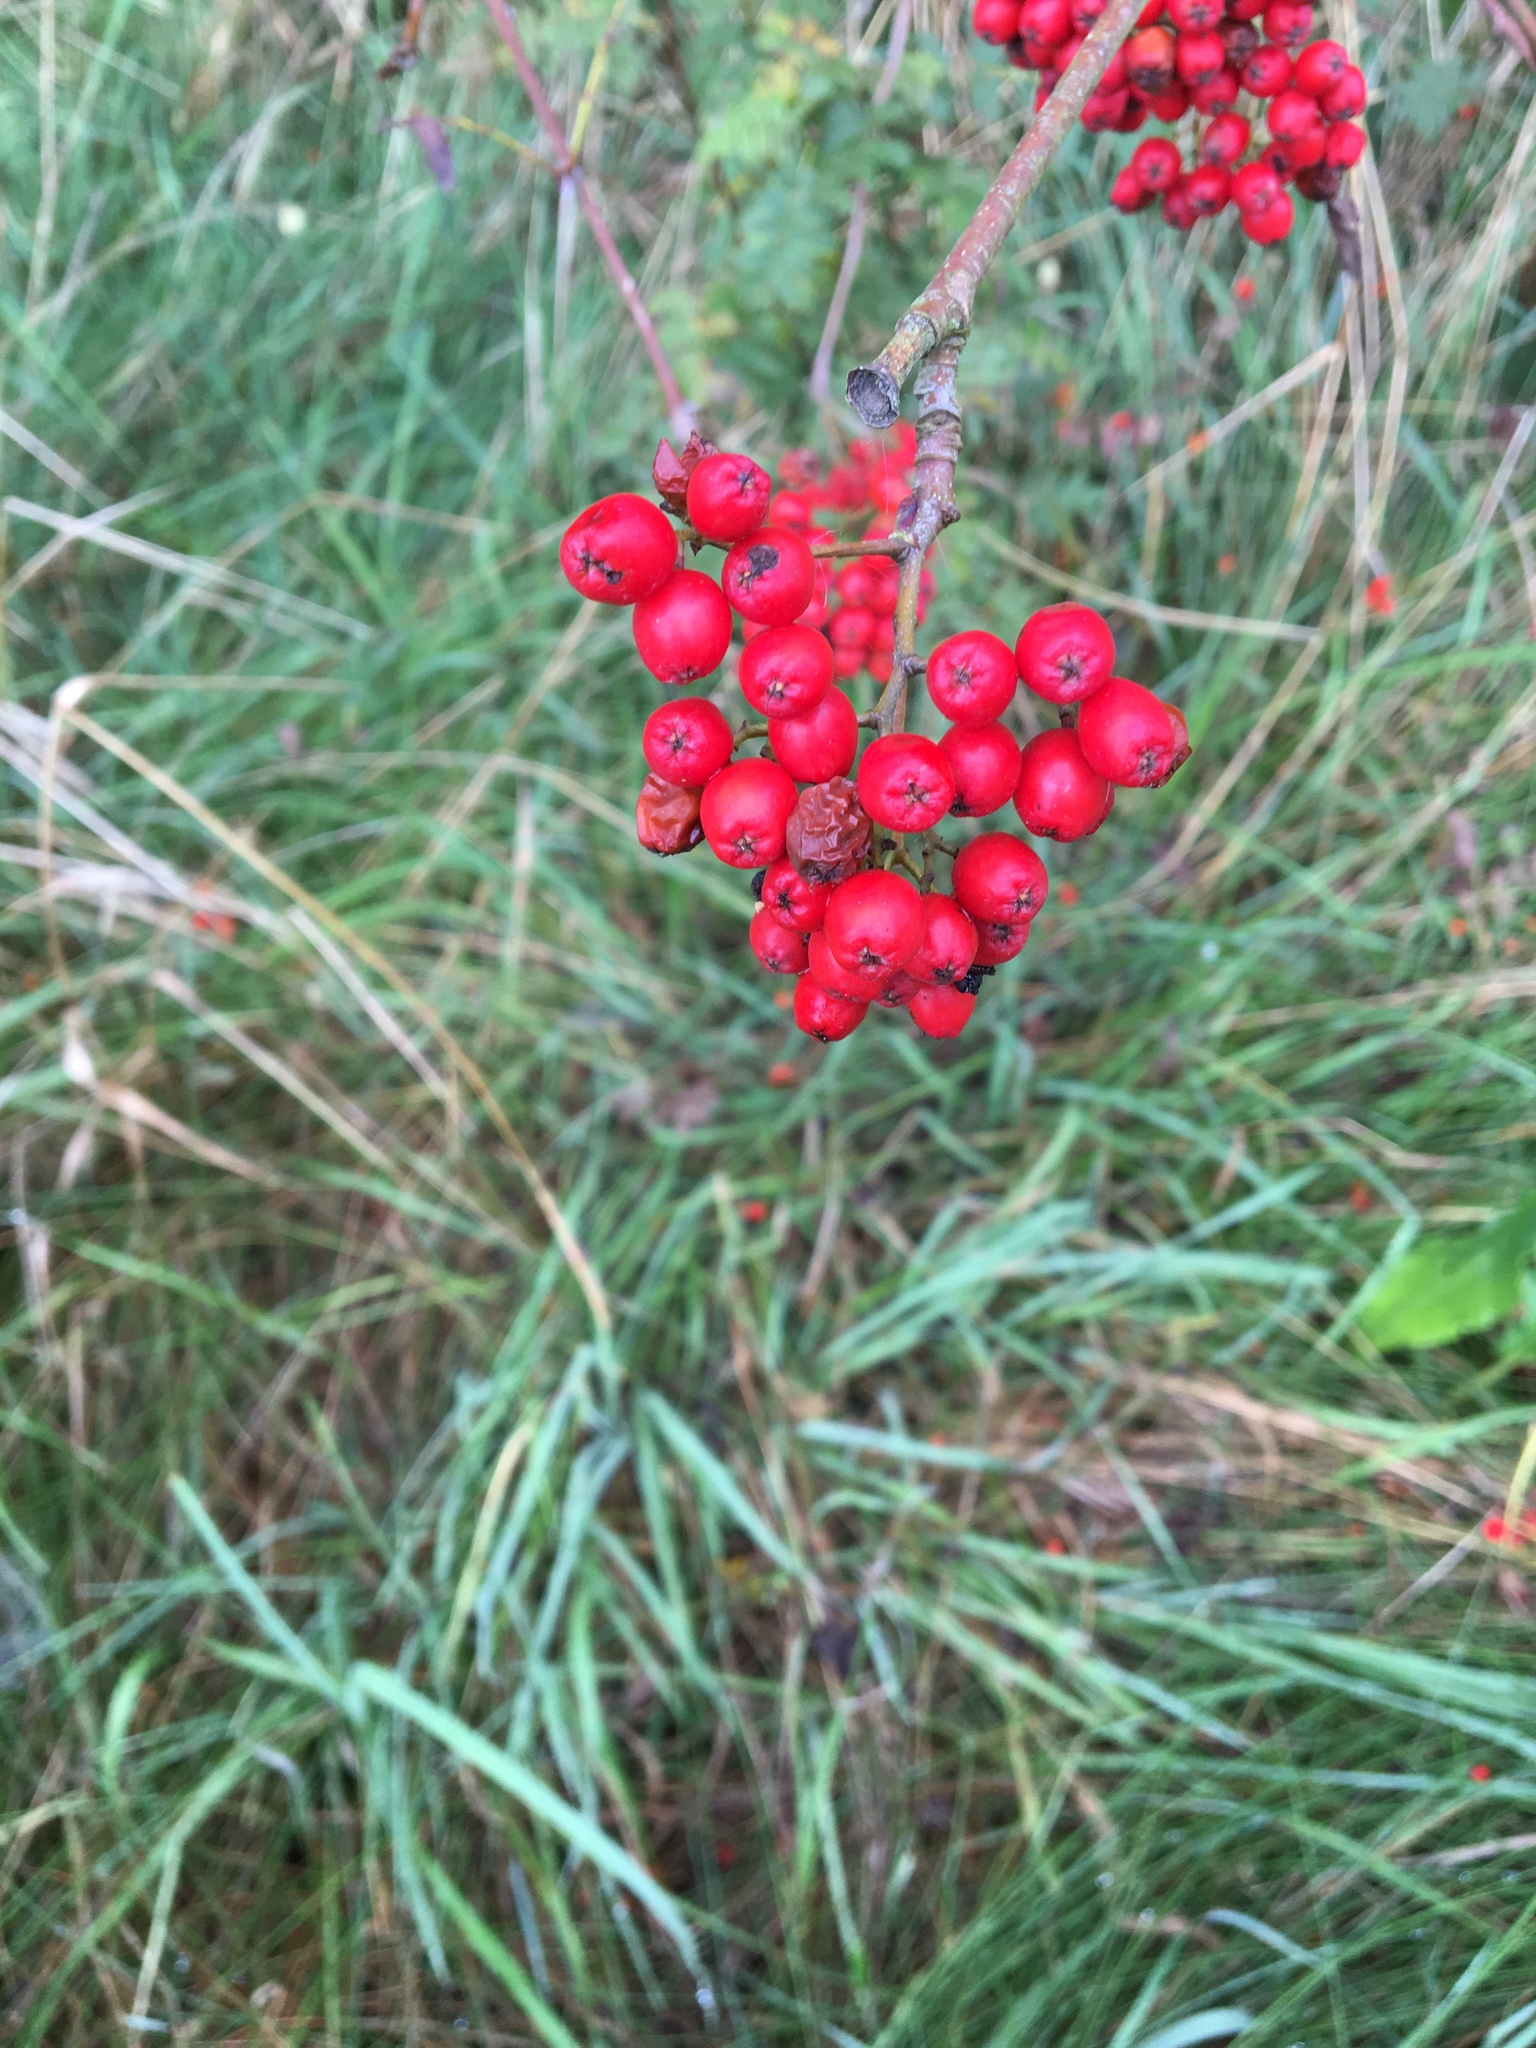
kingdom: Plantae
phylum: Tracheophyta
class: Magnoliopsida
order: Rosales
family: Rosaceae
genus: Sorbus
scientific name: Sorbus aucuparia
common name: Rowan
